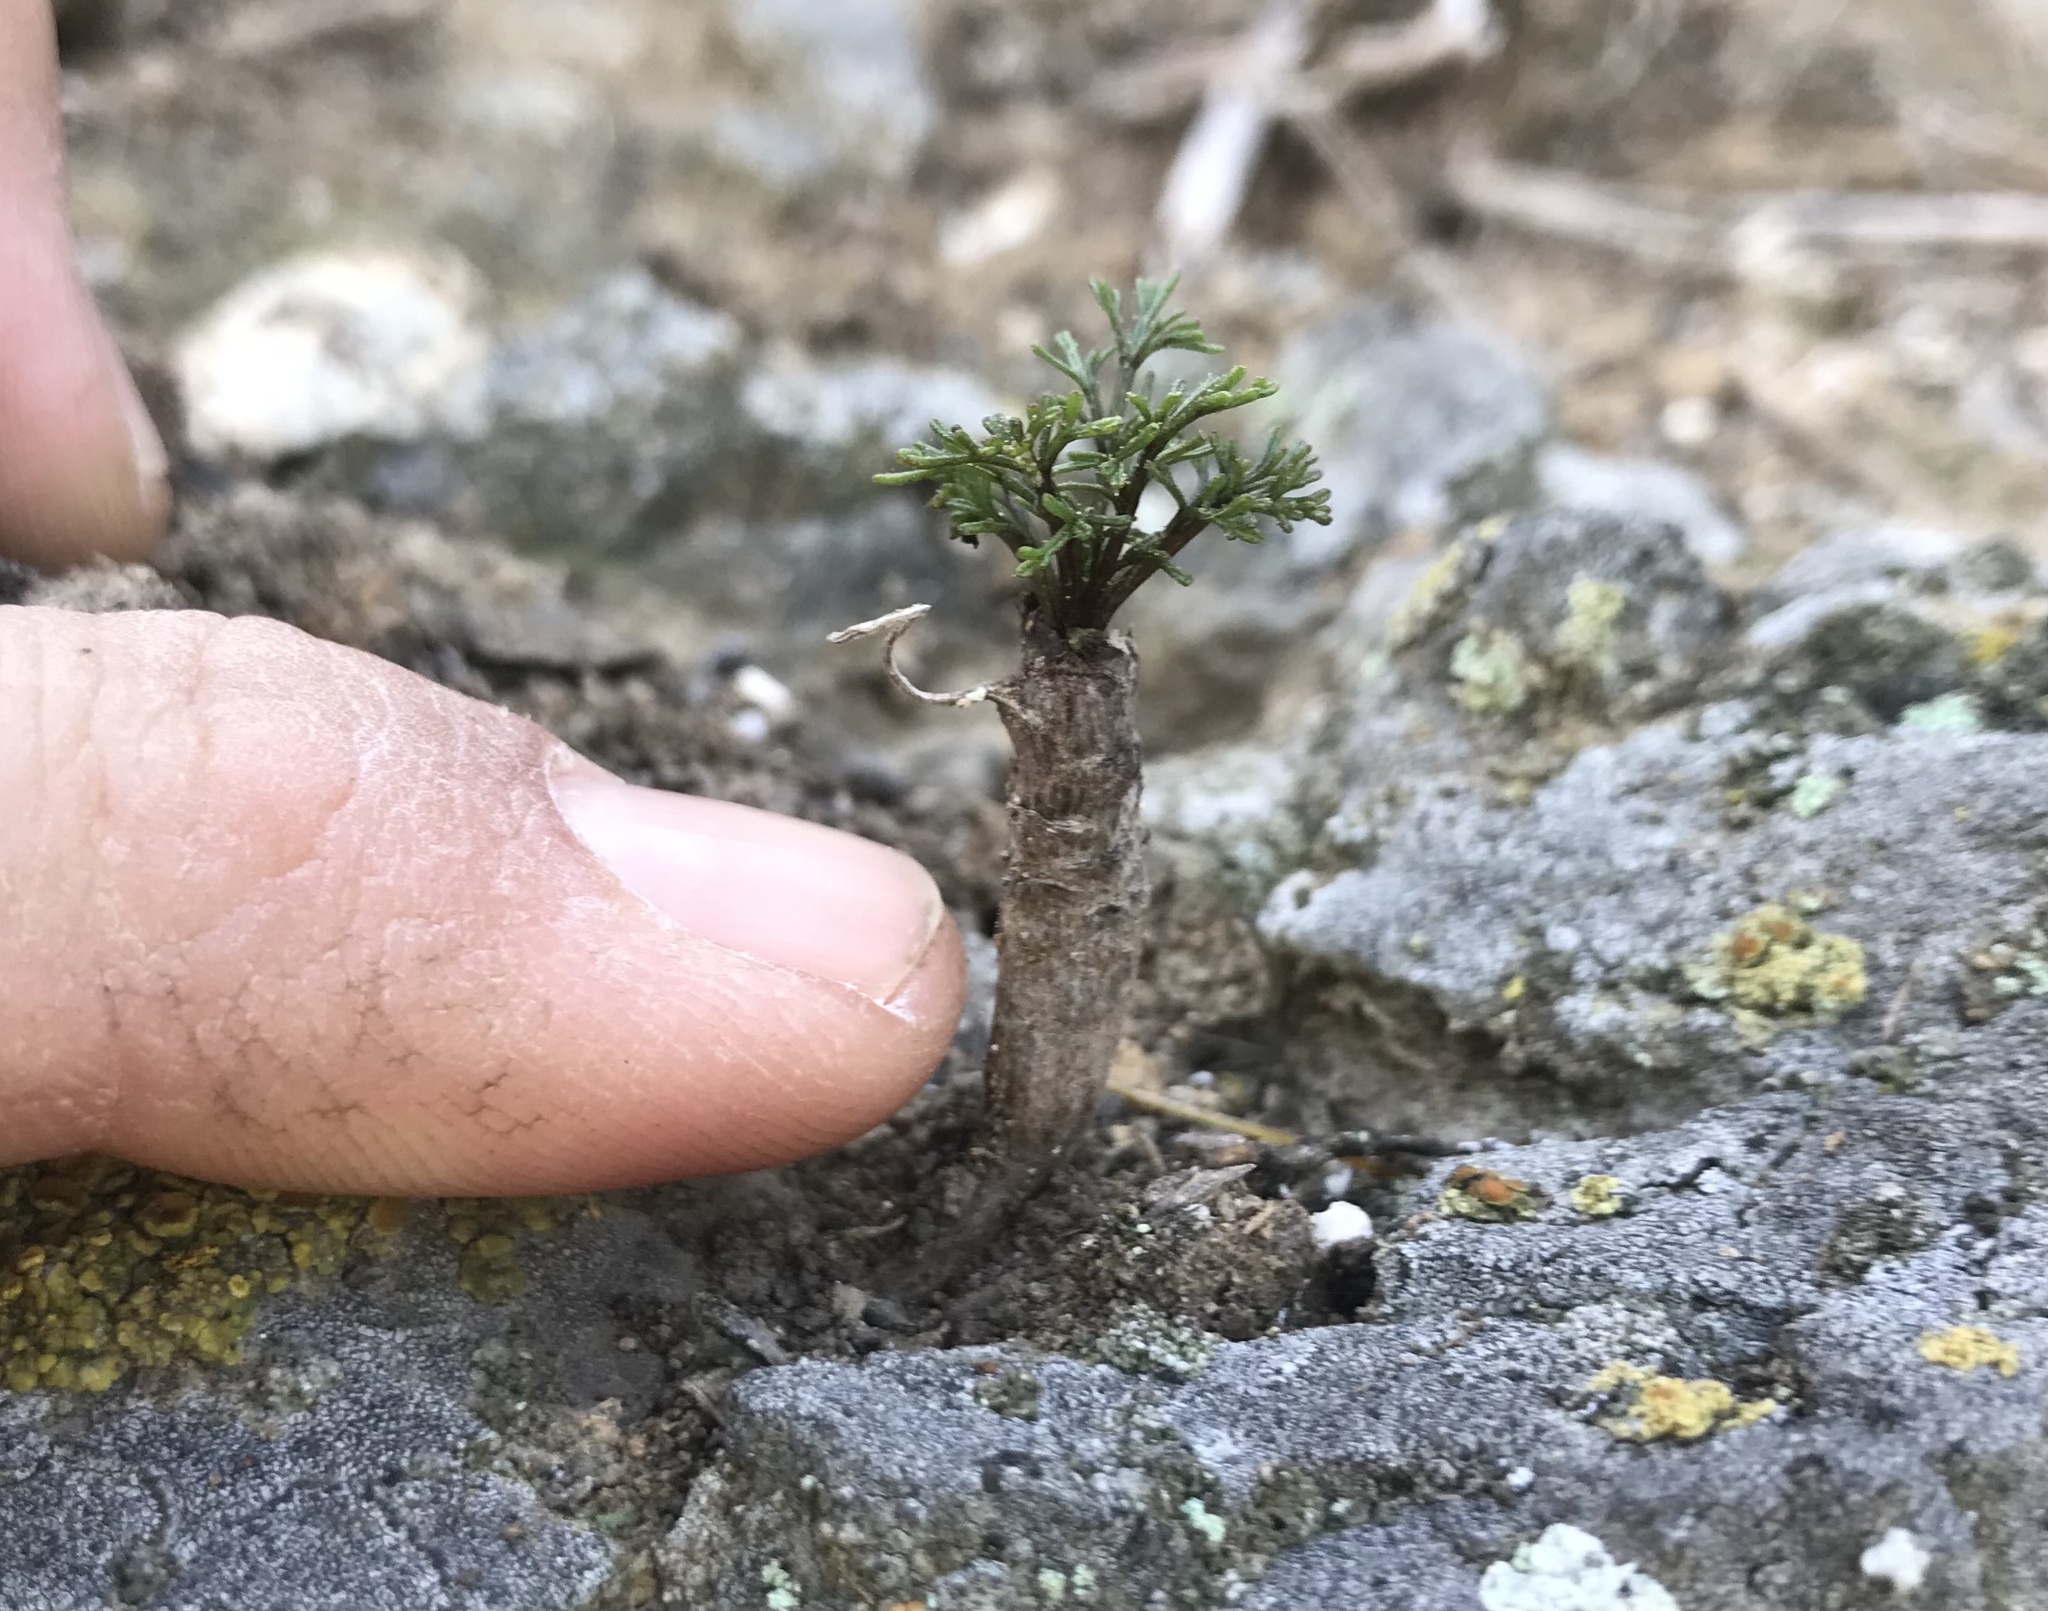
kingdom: Plantae
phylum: Tracheophyta
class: Magnoliopsida
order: Asterales
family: Asteraceae
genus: Coreopsis
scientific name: Coreopsis gigantea
